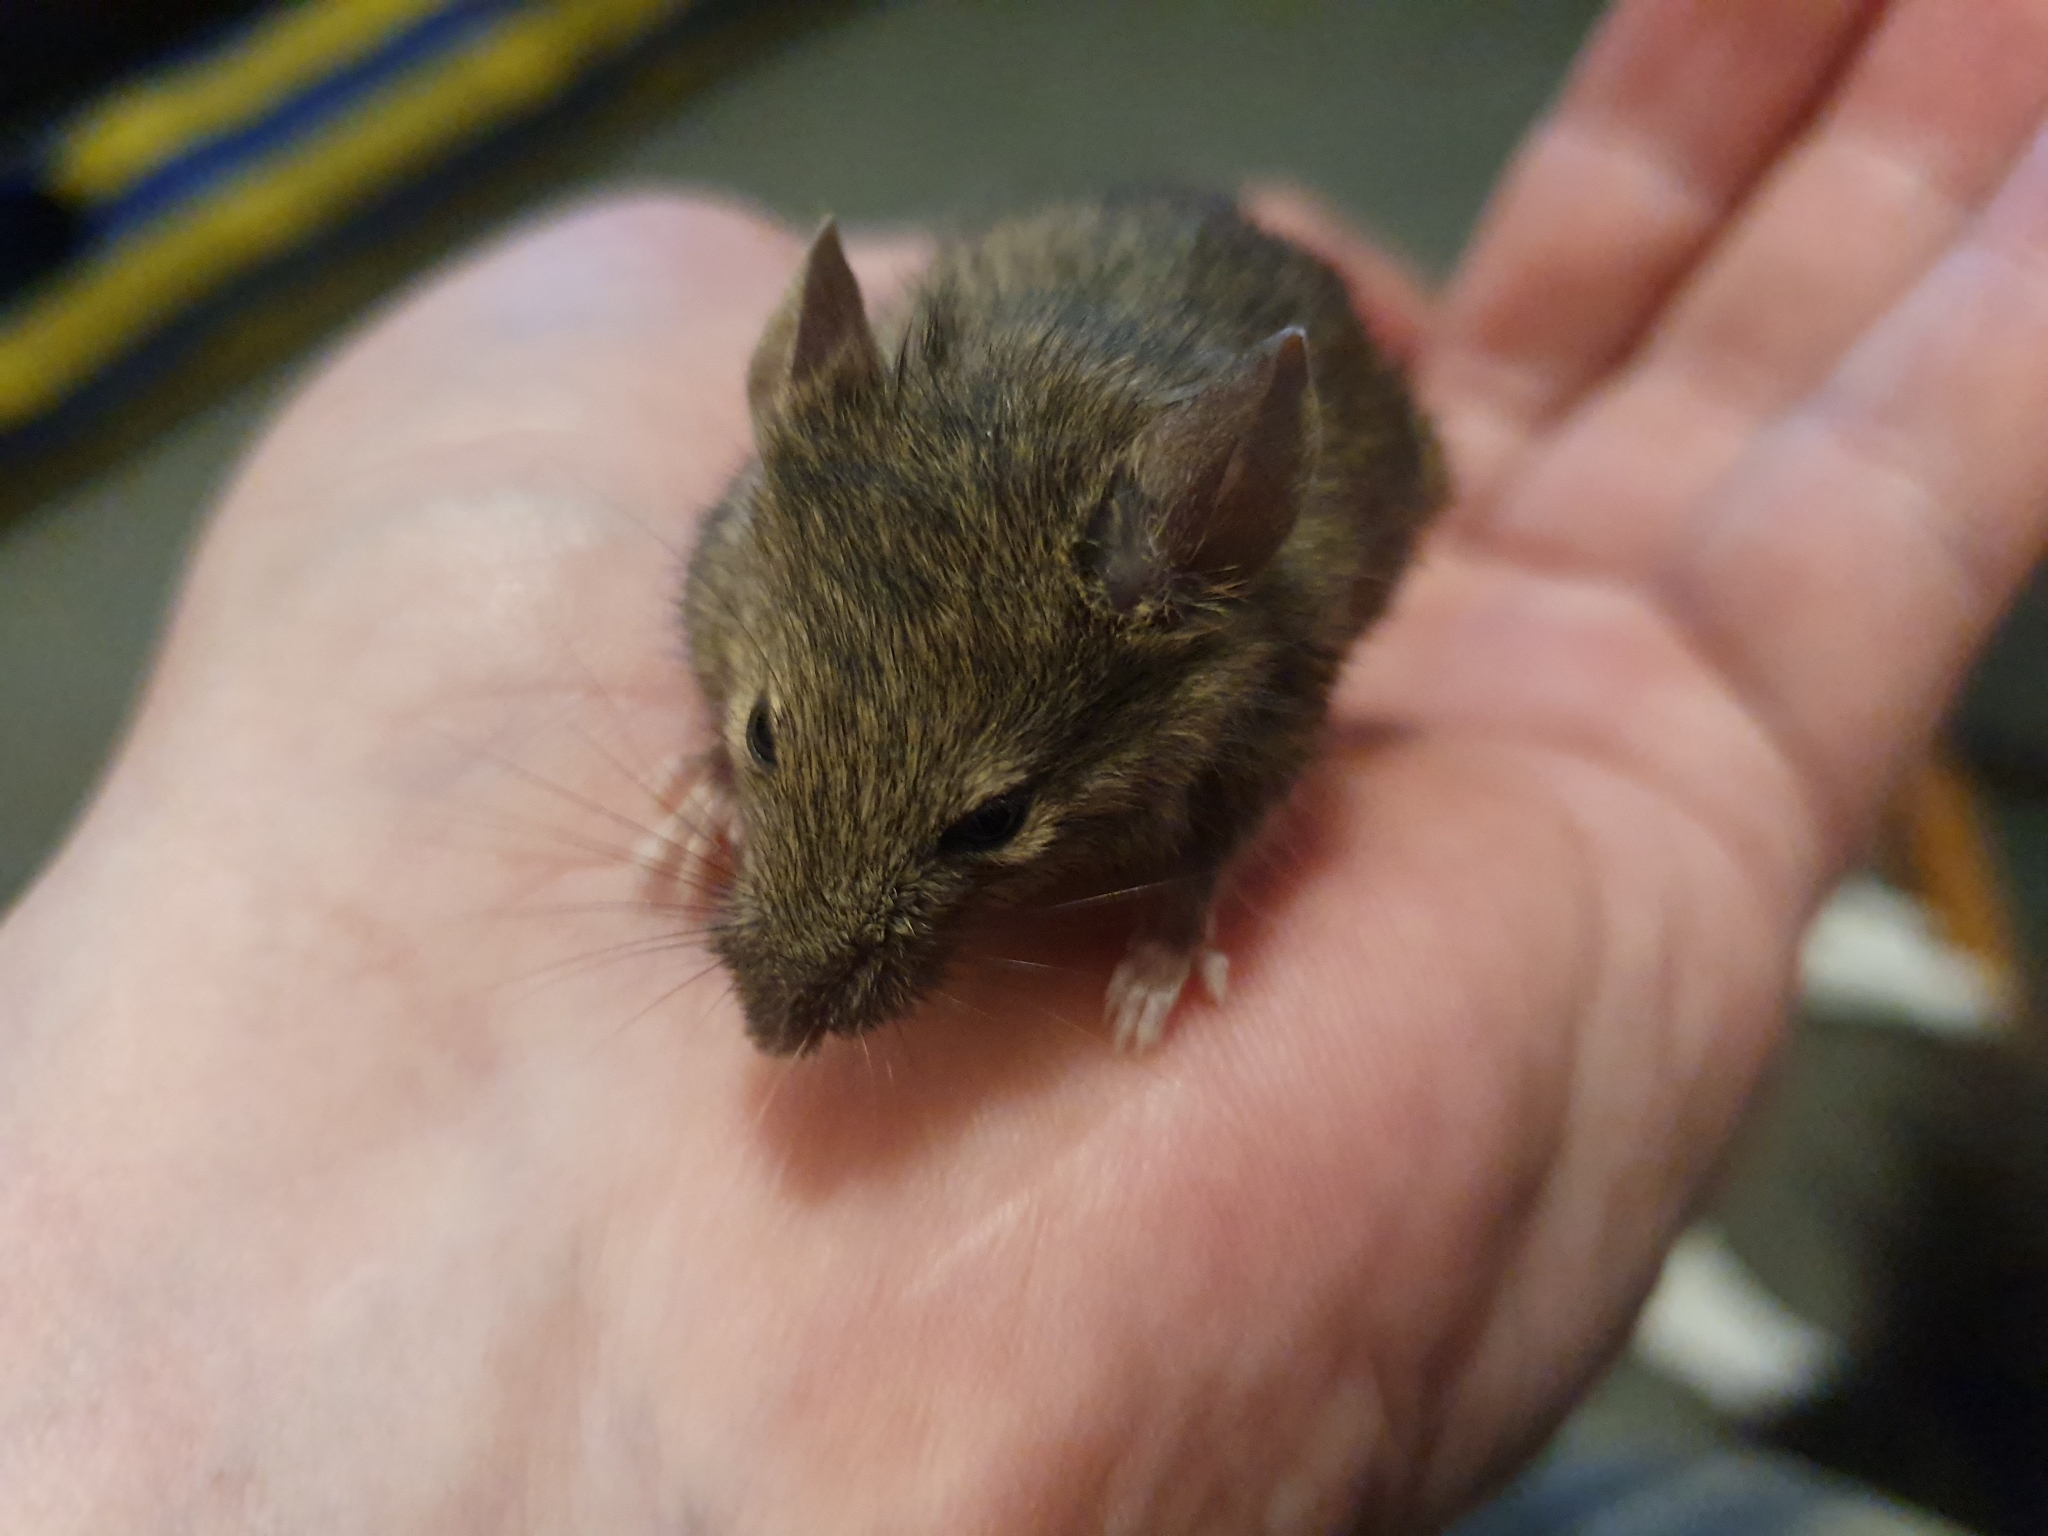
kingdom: Animalia
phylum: Chordata
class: Mammalia
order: Rodentia
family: Muridae
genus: Mus
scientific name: Mus musculus
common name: House mouse
